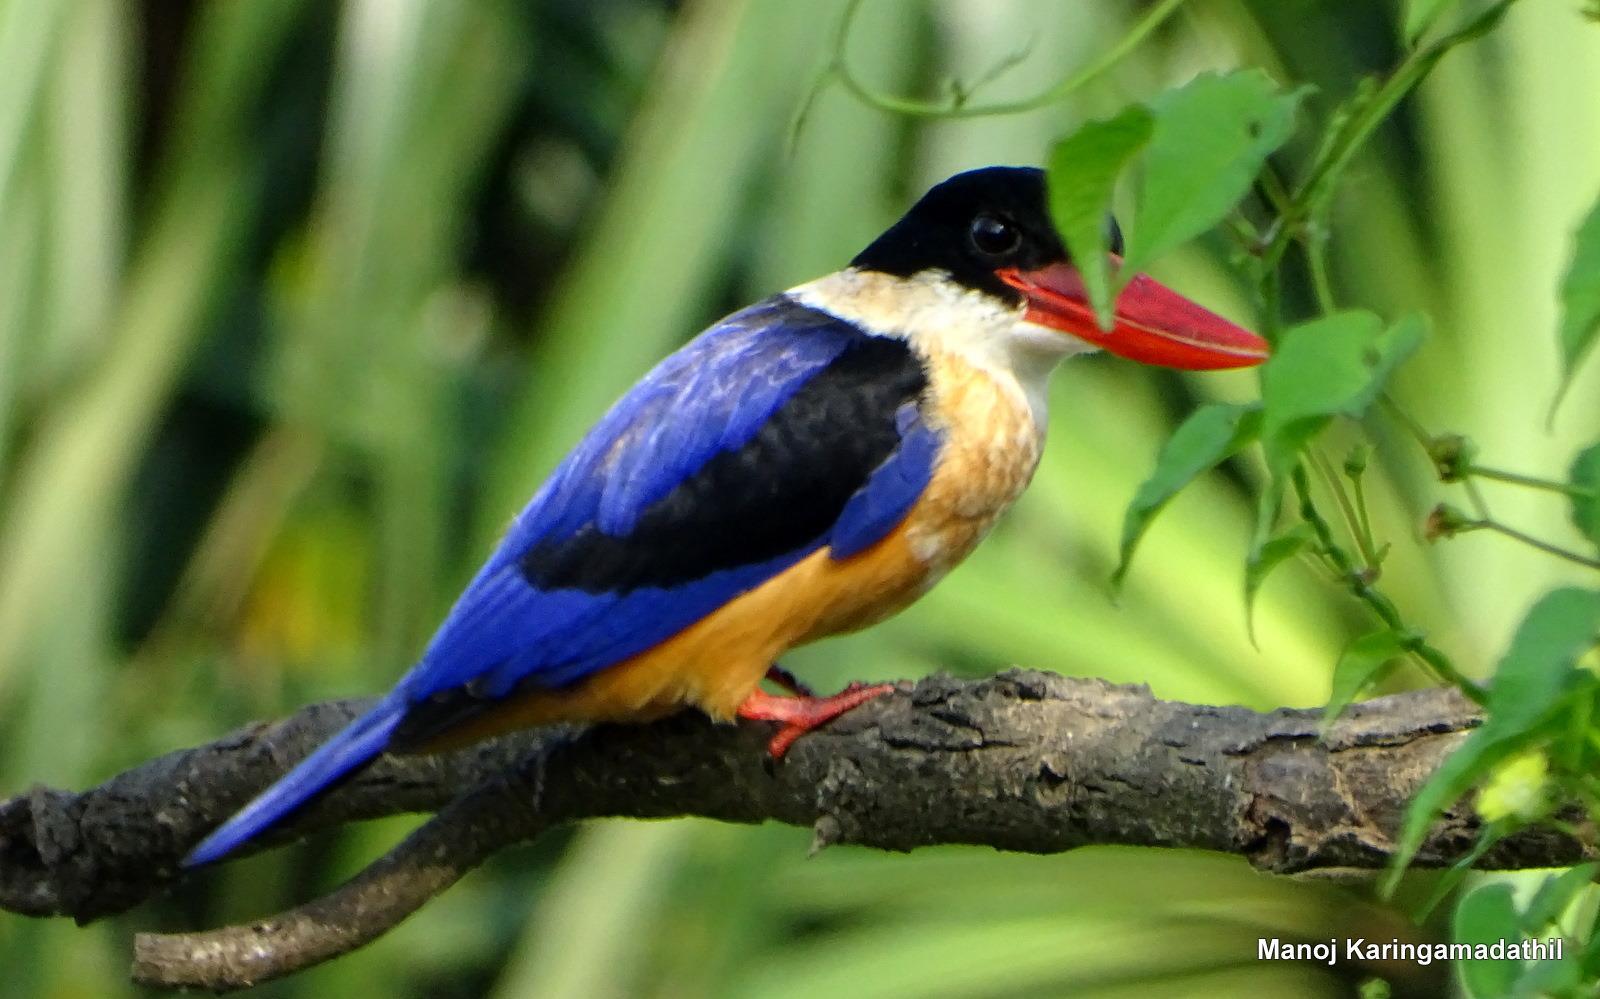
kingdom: Animalia
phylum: Chordata
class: Aves
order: Coraciiformes
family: Alcedinidae
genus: Halcyon
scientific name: Halcyon pileata
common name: Black-capped kingfisher
